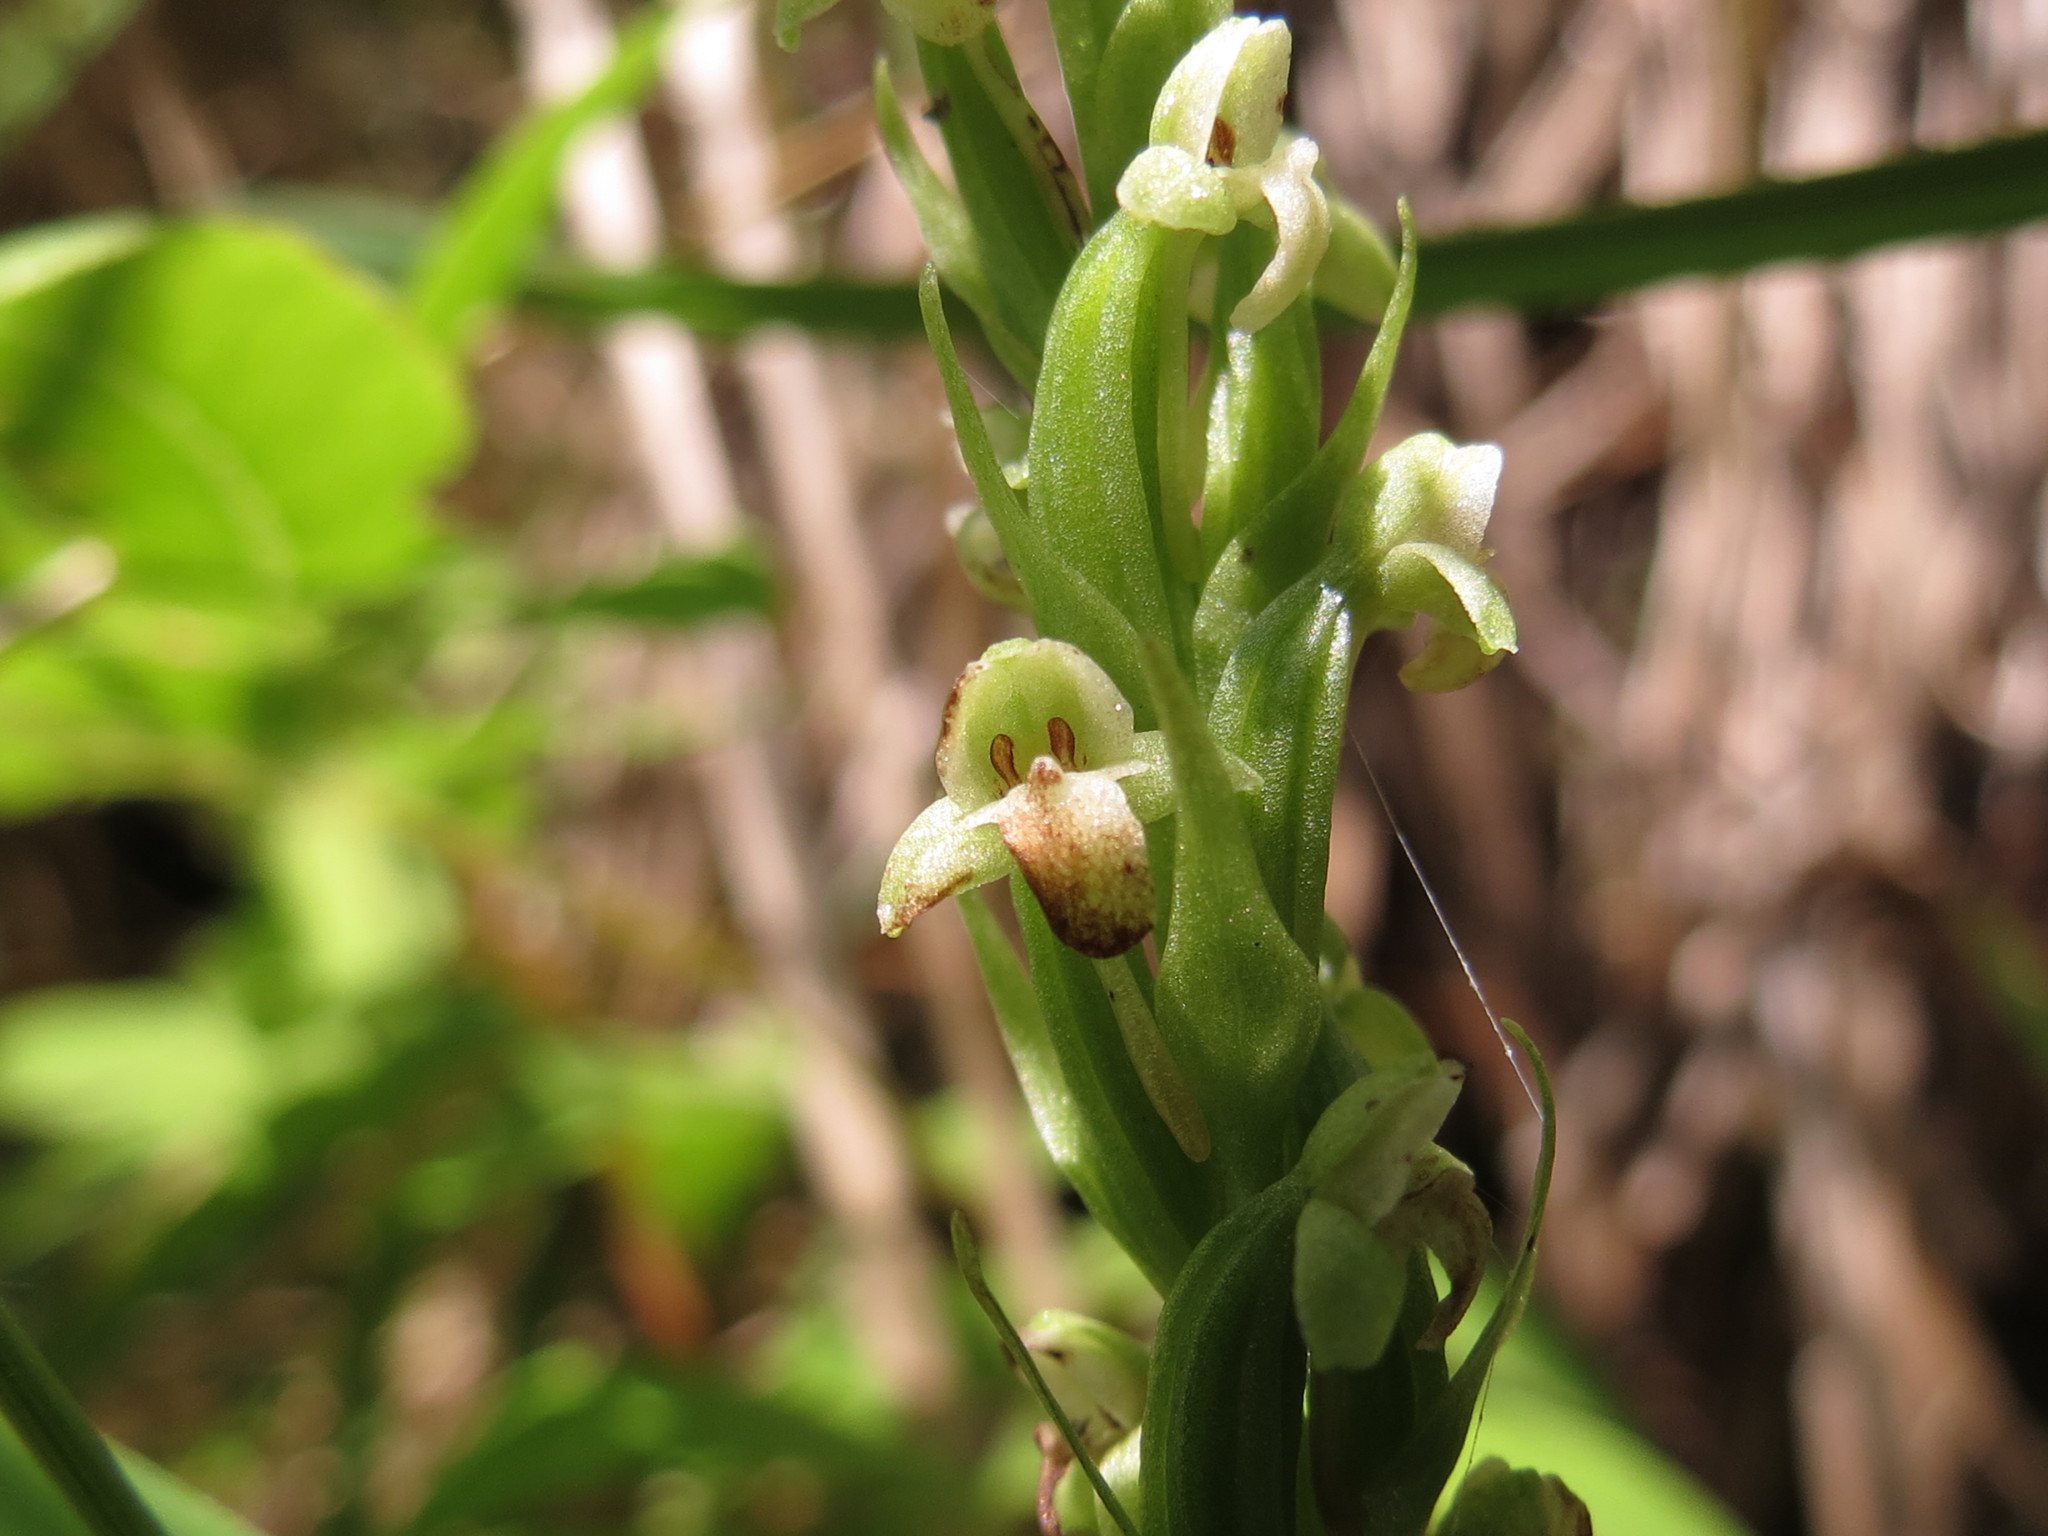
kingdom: Plantae
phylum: Tracheophyta
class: Liliopsida
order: Asparagales
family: Orchidaceae
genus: Platanthera
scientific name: Platanthera flava
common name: Gypsy-spikes
